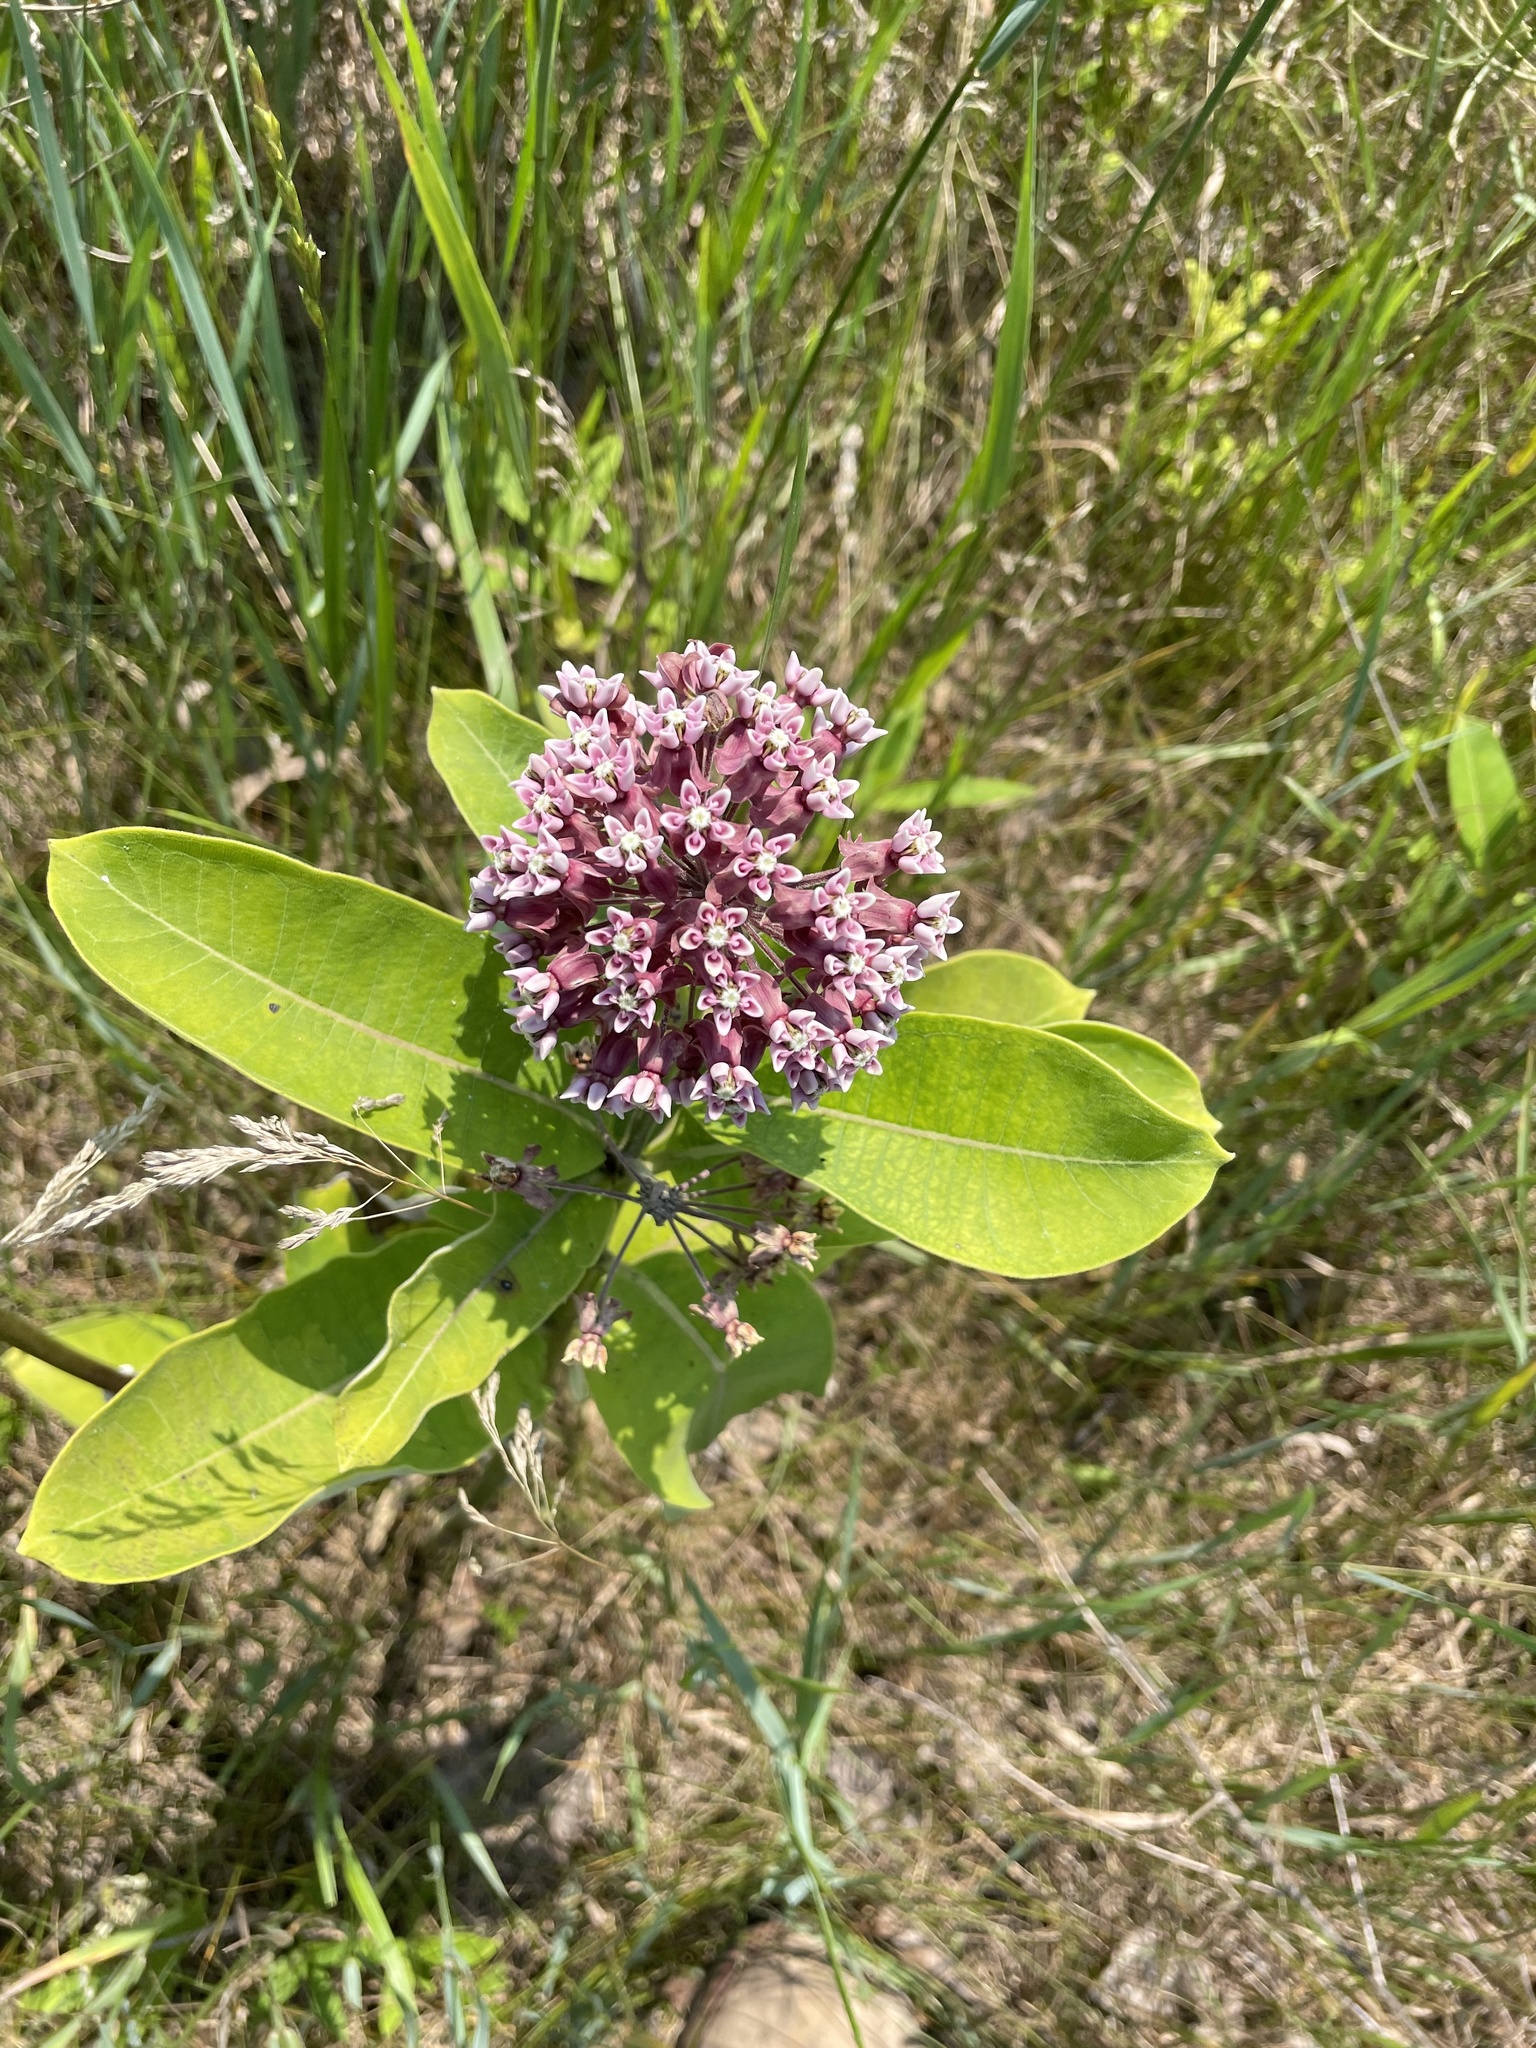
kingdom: Plantae
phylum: Tracheophyta
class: Magnoliopsida
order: Gentianales
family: Apocynaceae
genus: Asclepias
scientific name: Asclepias syriaca
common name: Common milkweed
